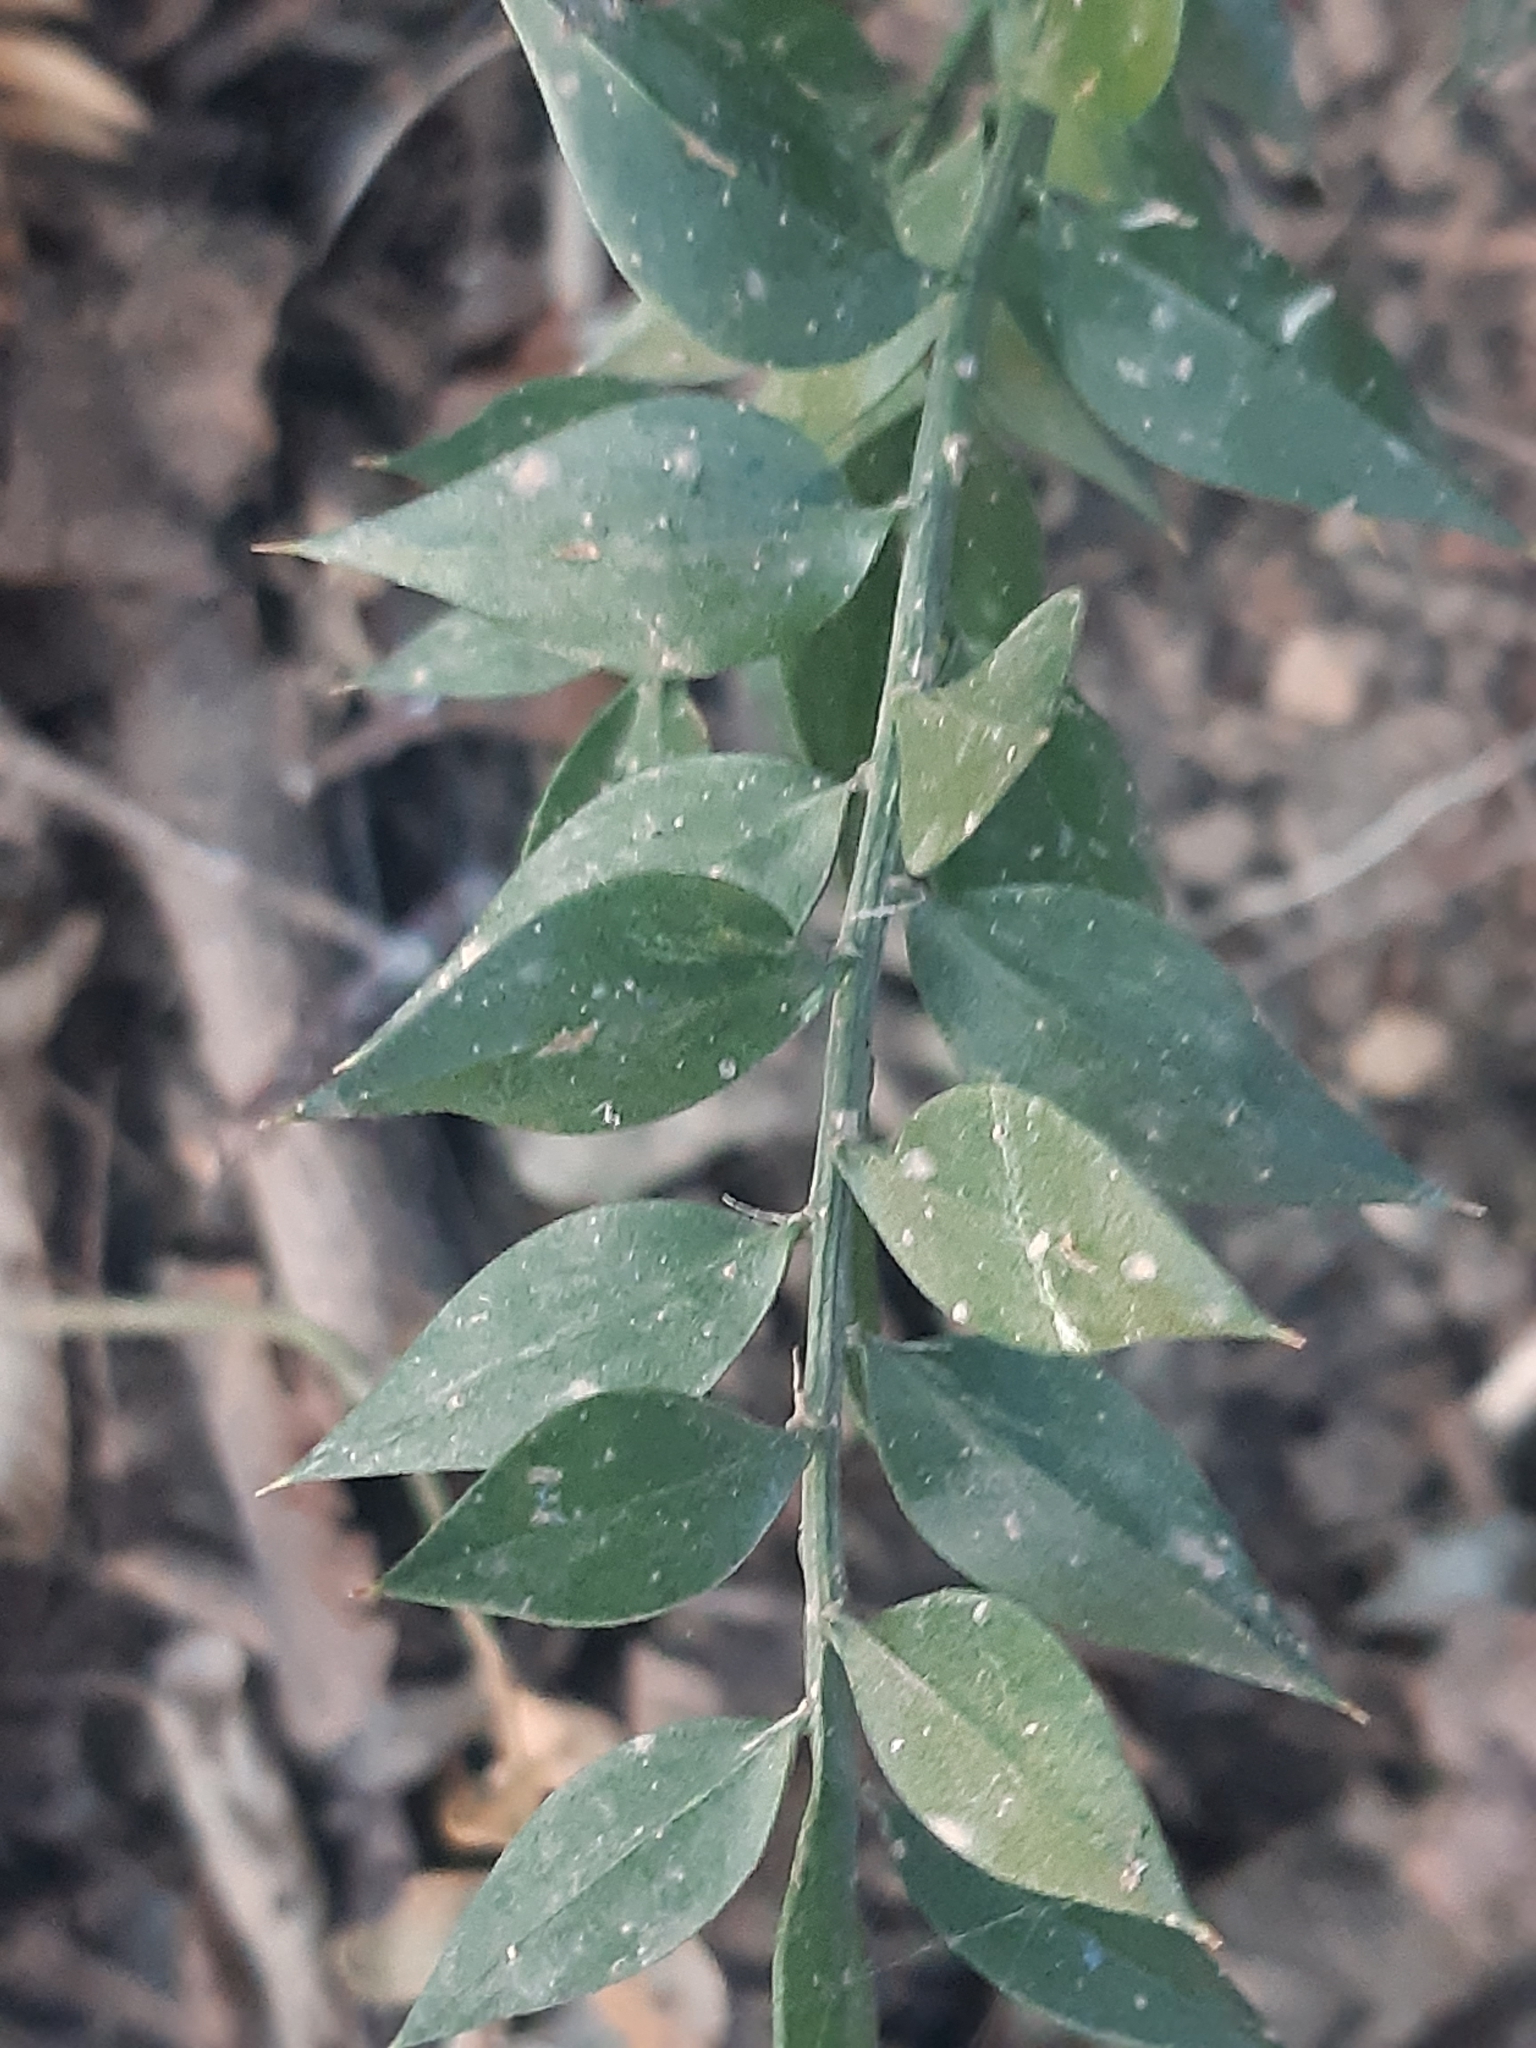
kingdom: Plantae
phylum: Tracheophyta
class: Liliopsida
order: Asparagales
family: Asparagaceae
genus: Ruscus
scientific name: Ruscus aculeatus
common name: Butcher's-broom
